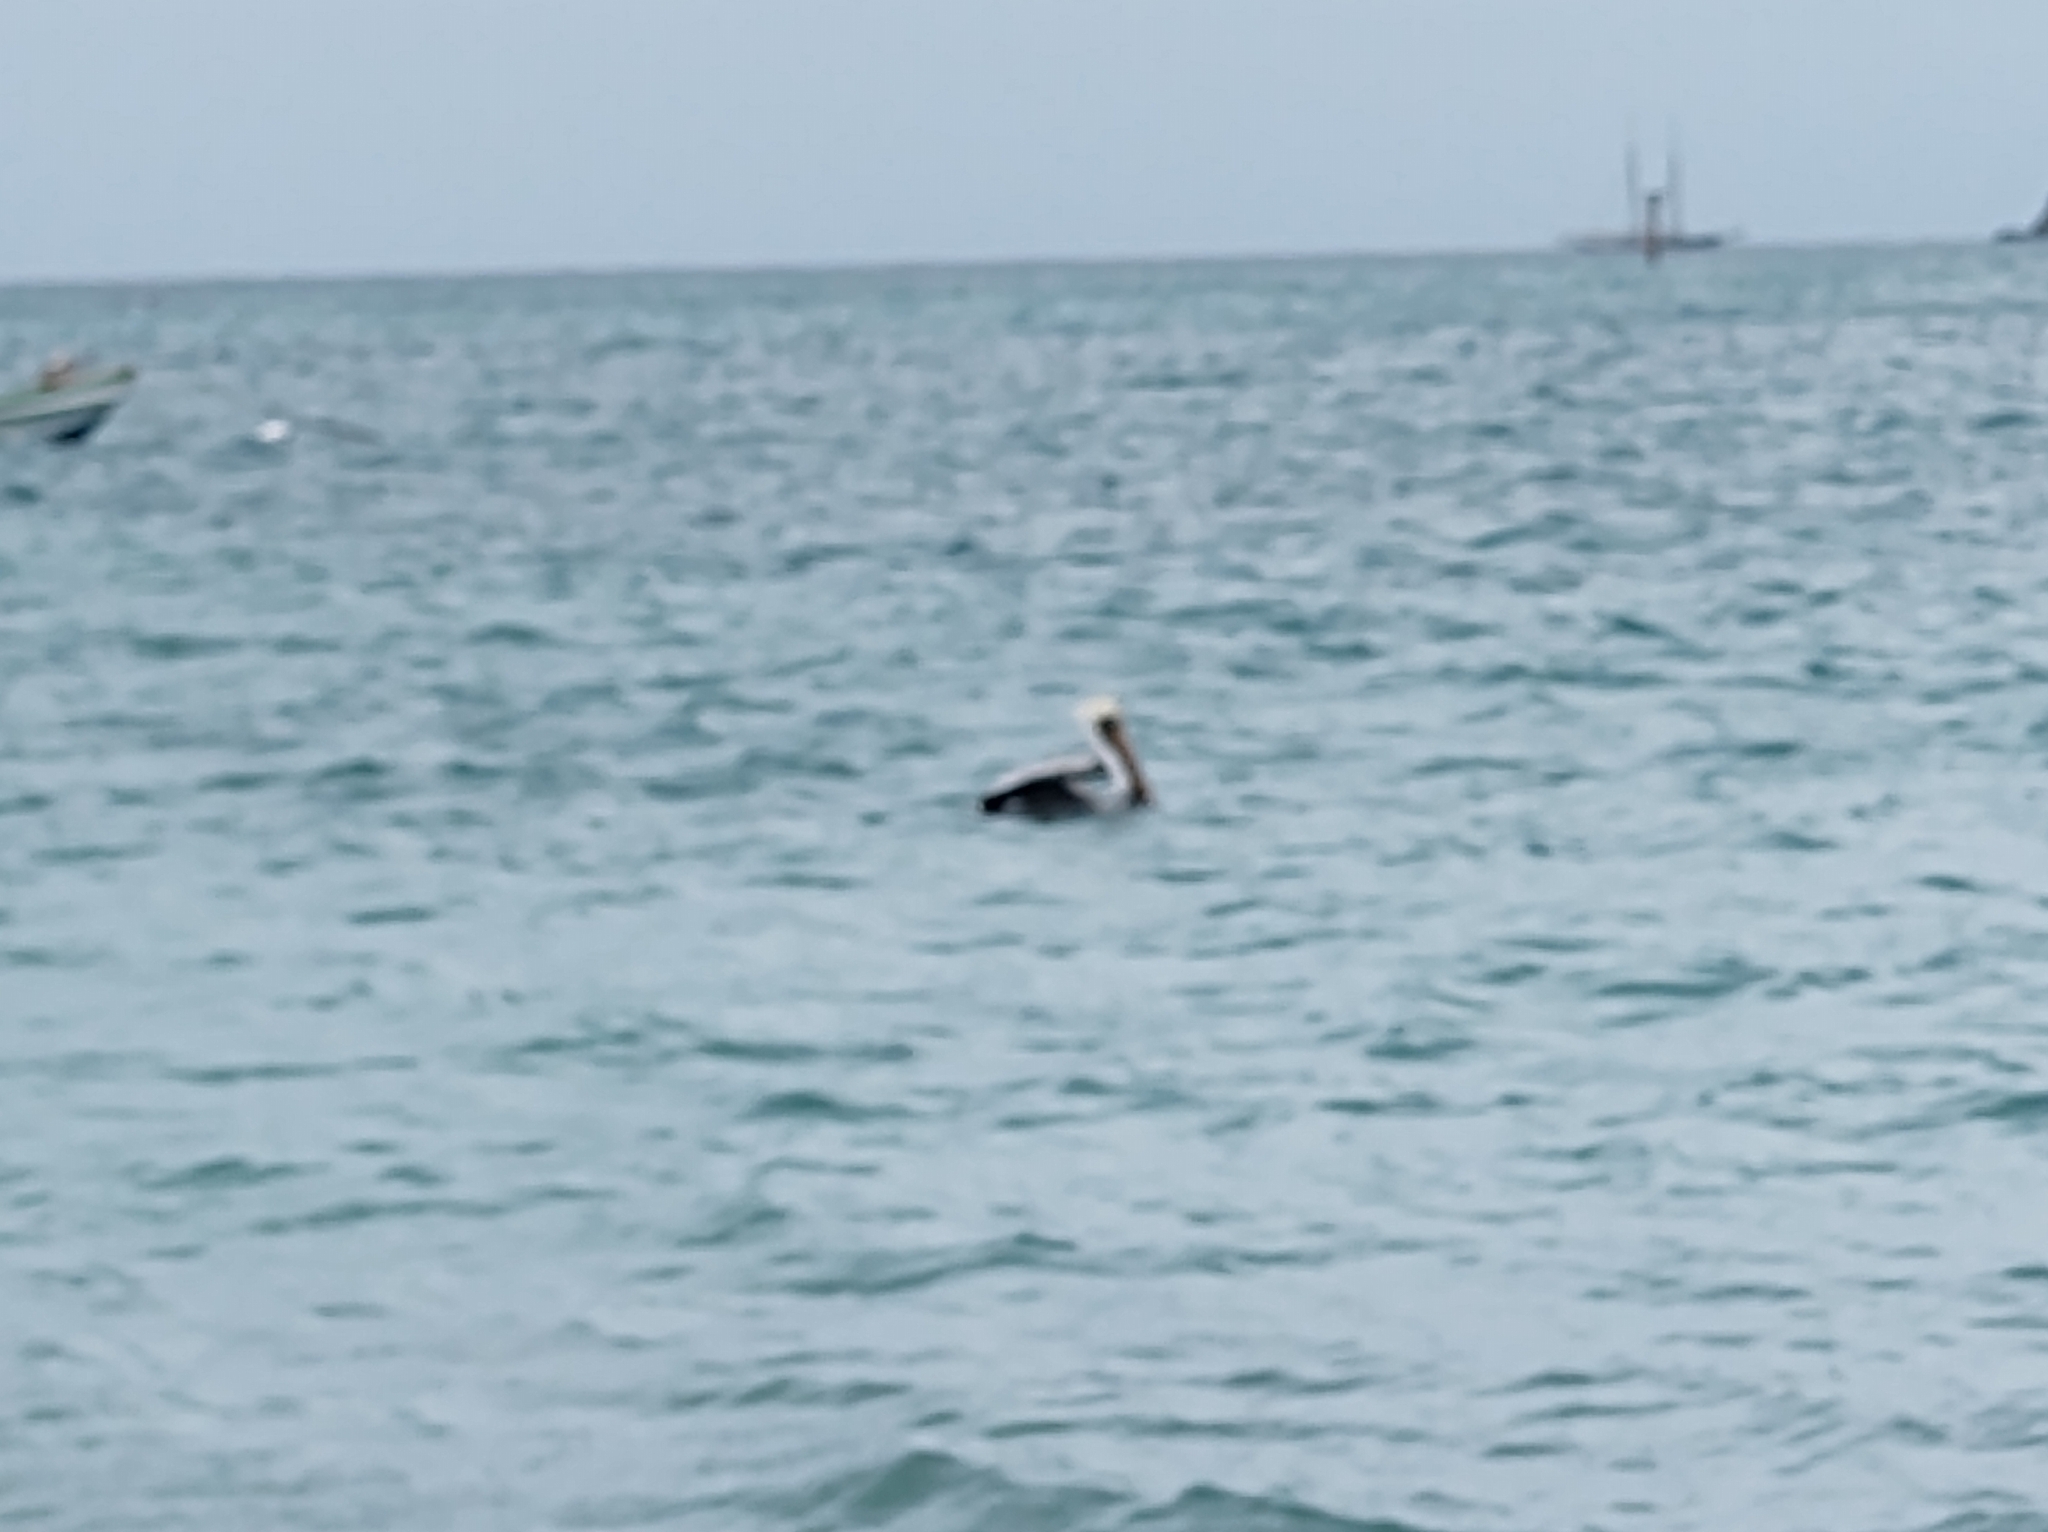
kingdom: Animalia
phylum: Chordata
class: Aves
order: Pelecaniformes
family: Pelecanidae
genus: Pelecanus
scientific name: Pelecanus occidentalis
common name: Brown pelican
